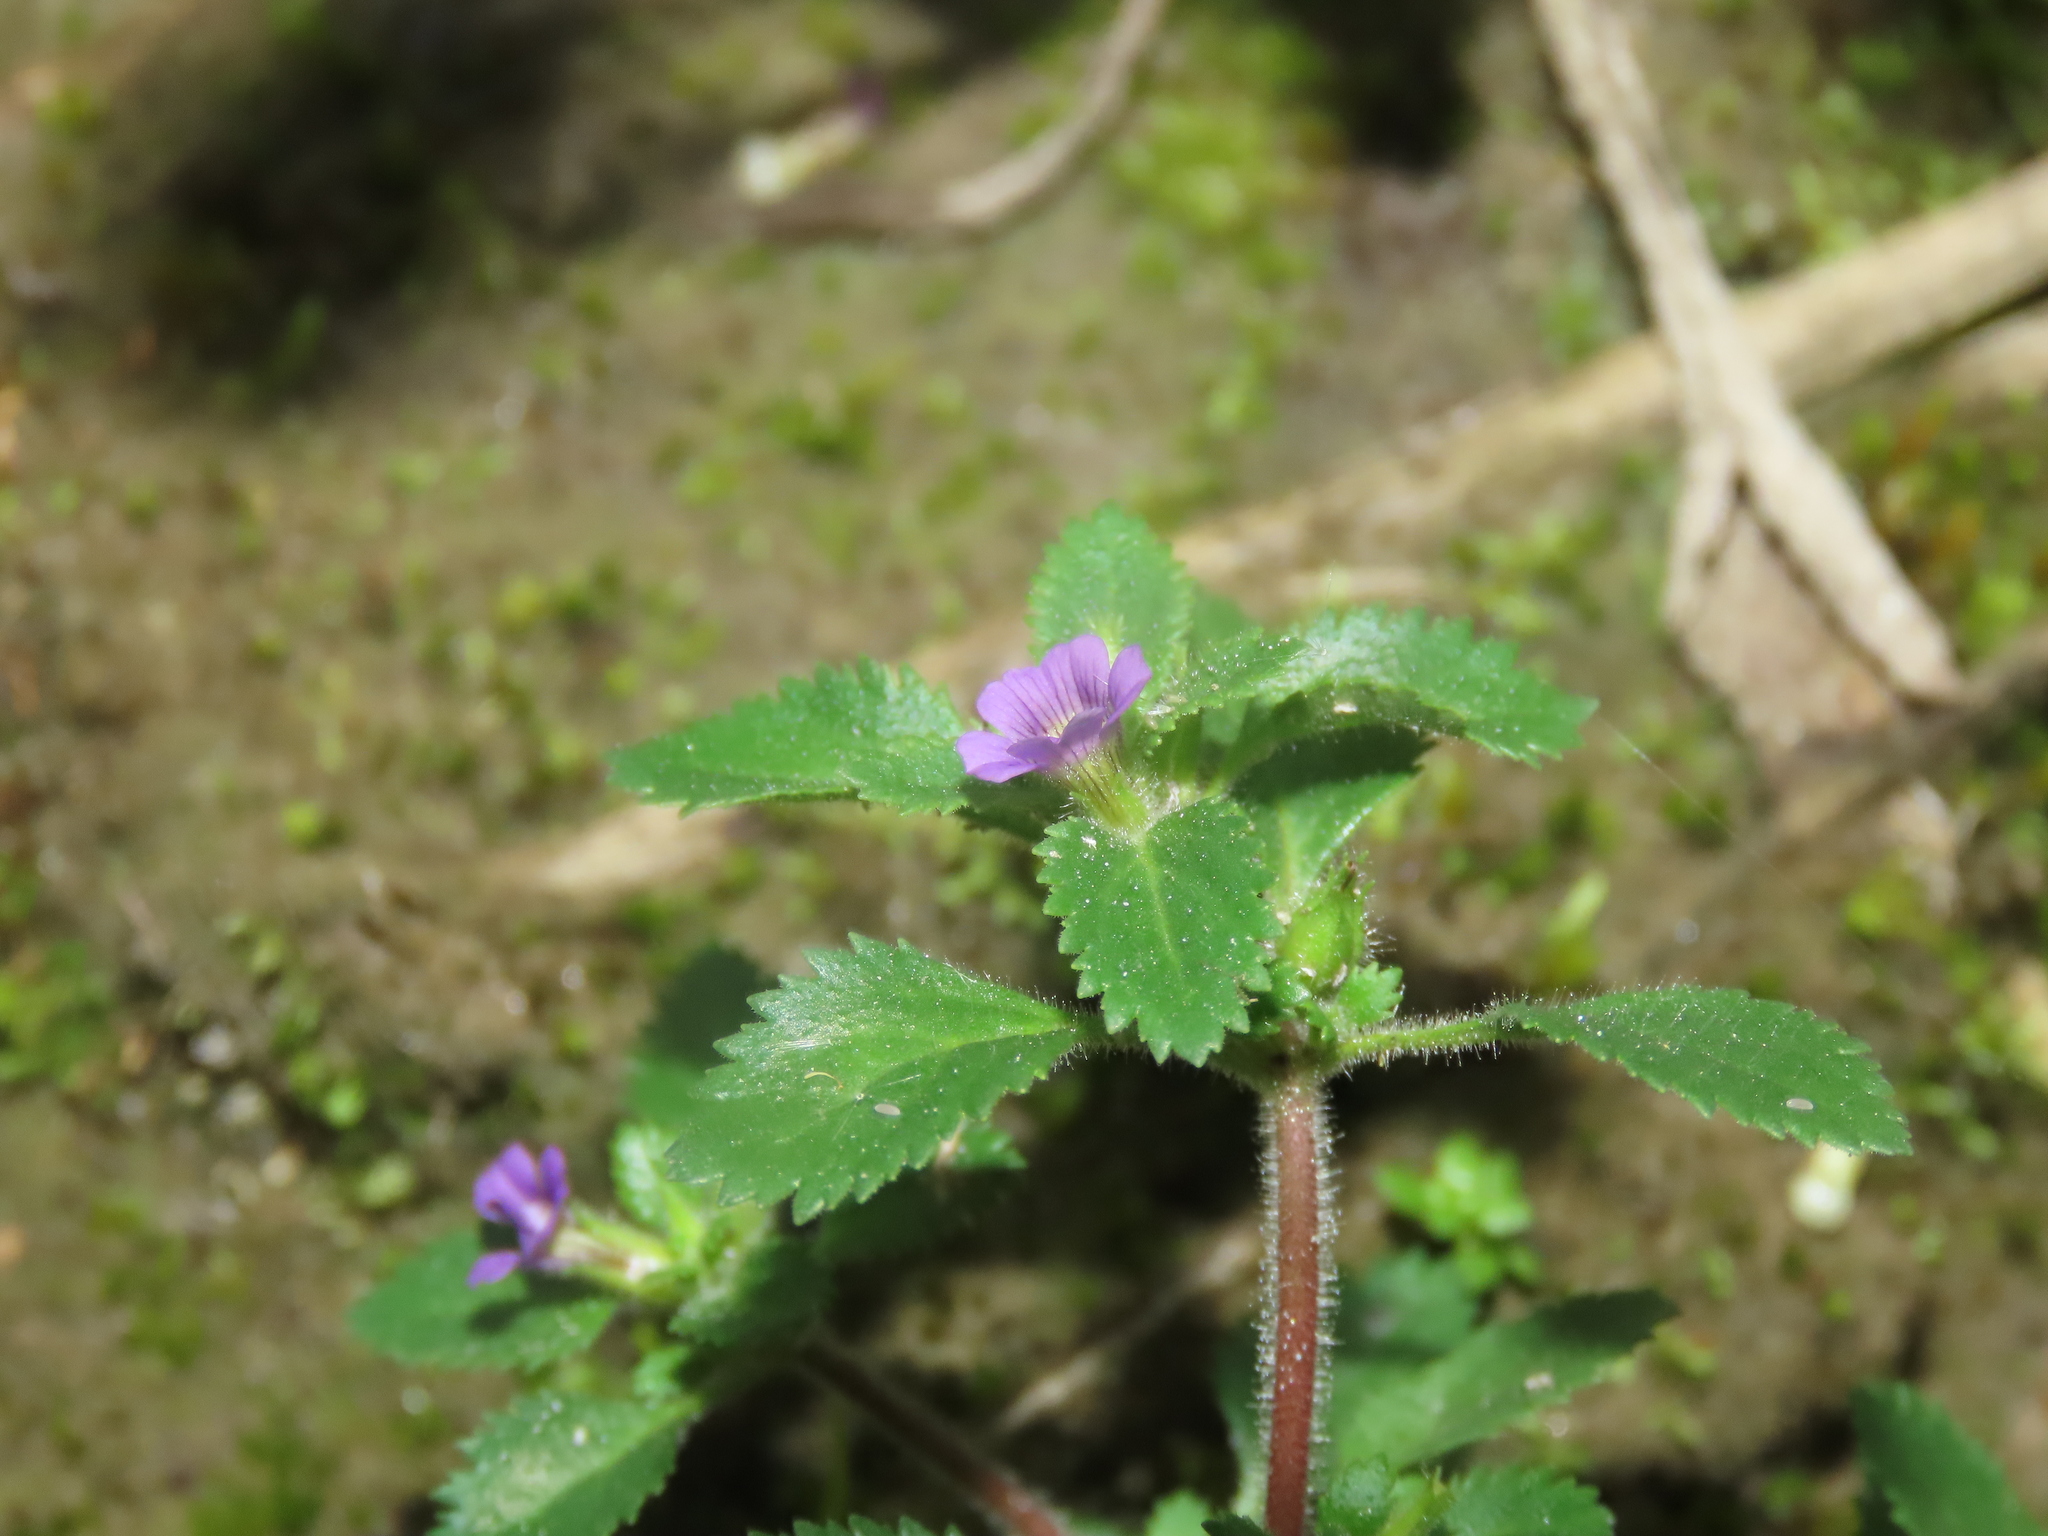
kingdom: Plantae
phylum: Tracheophyta
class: Magnoliopsida
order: Lamiales
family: Plantaginaceae
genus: Stemodia
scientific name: Stemodia verticillata
